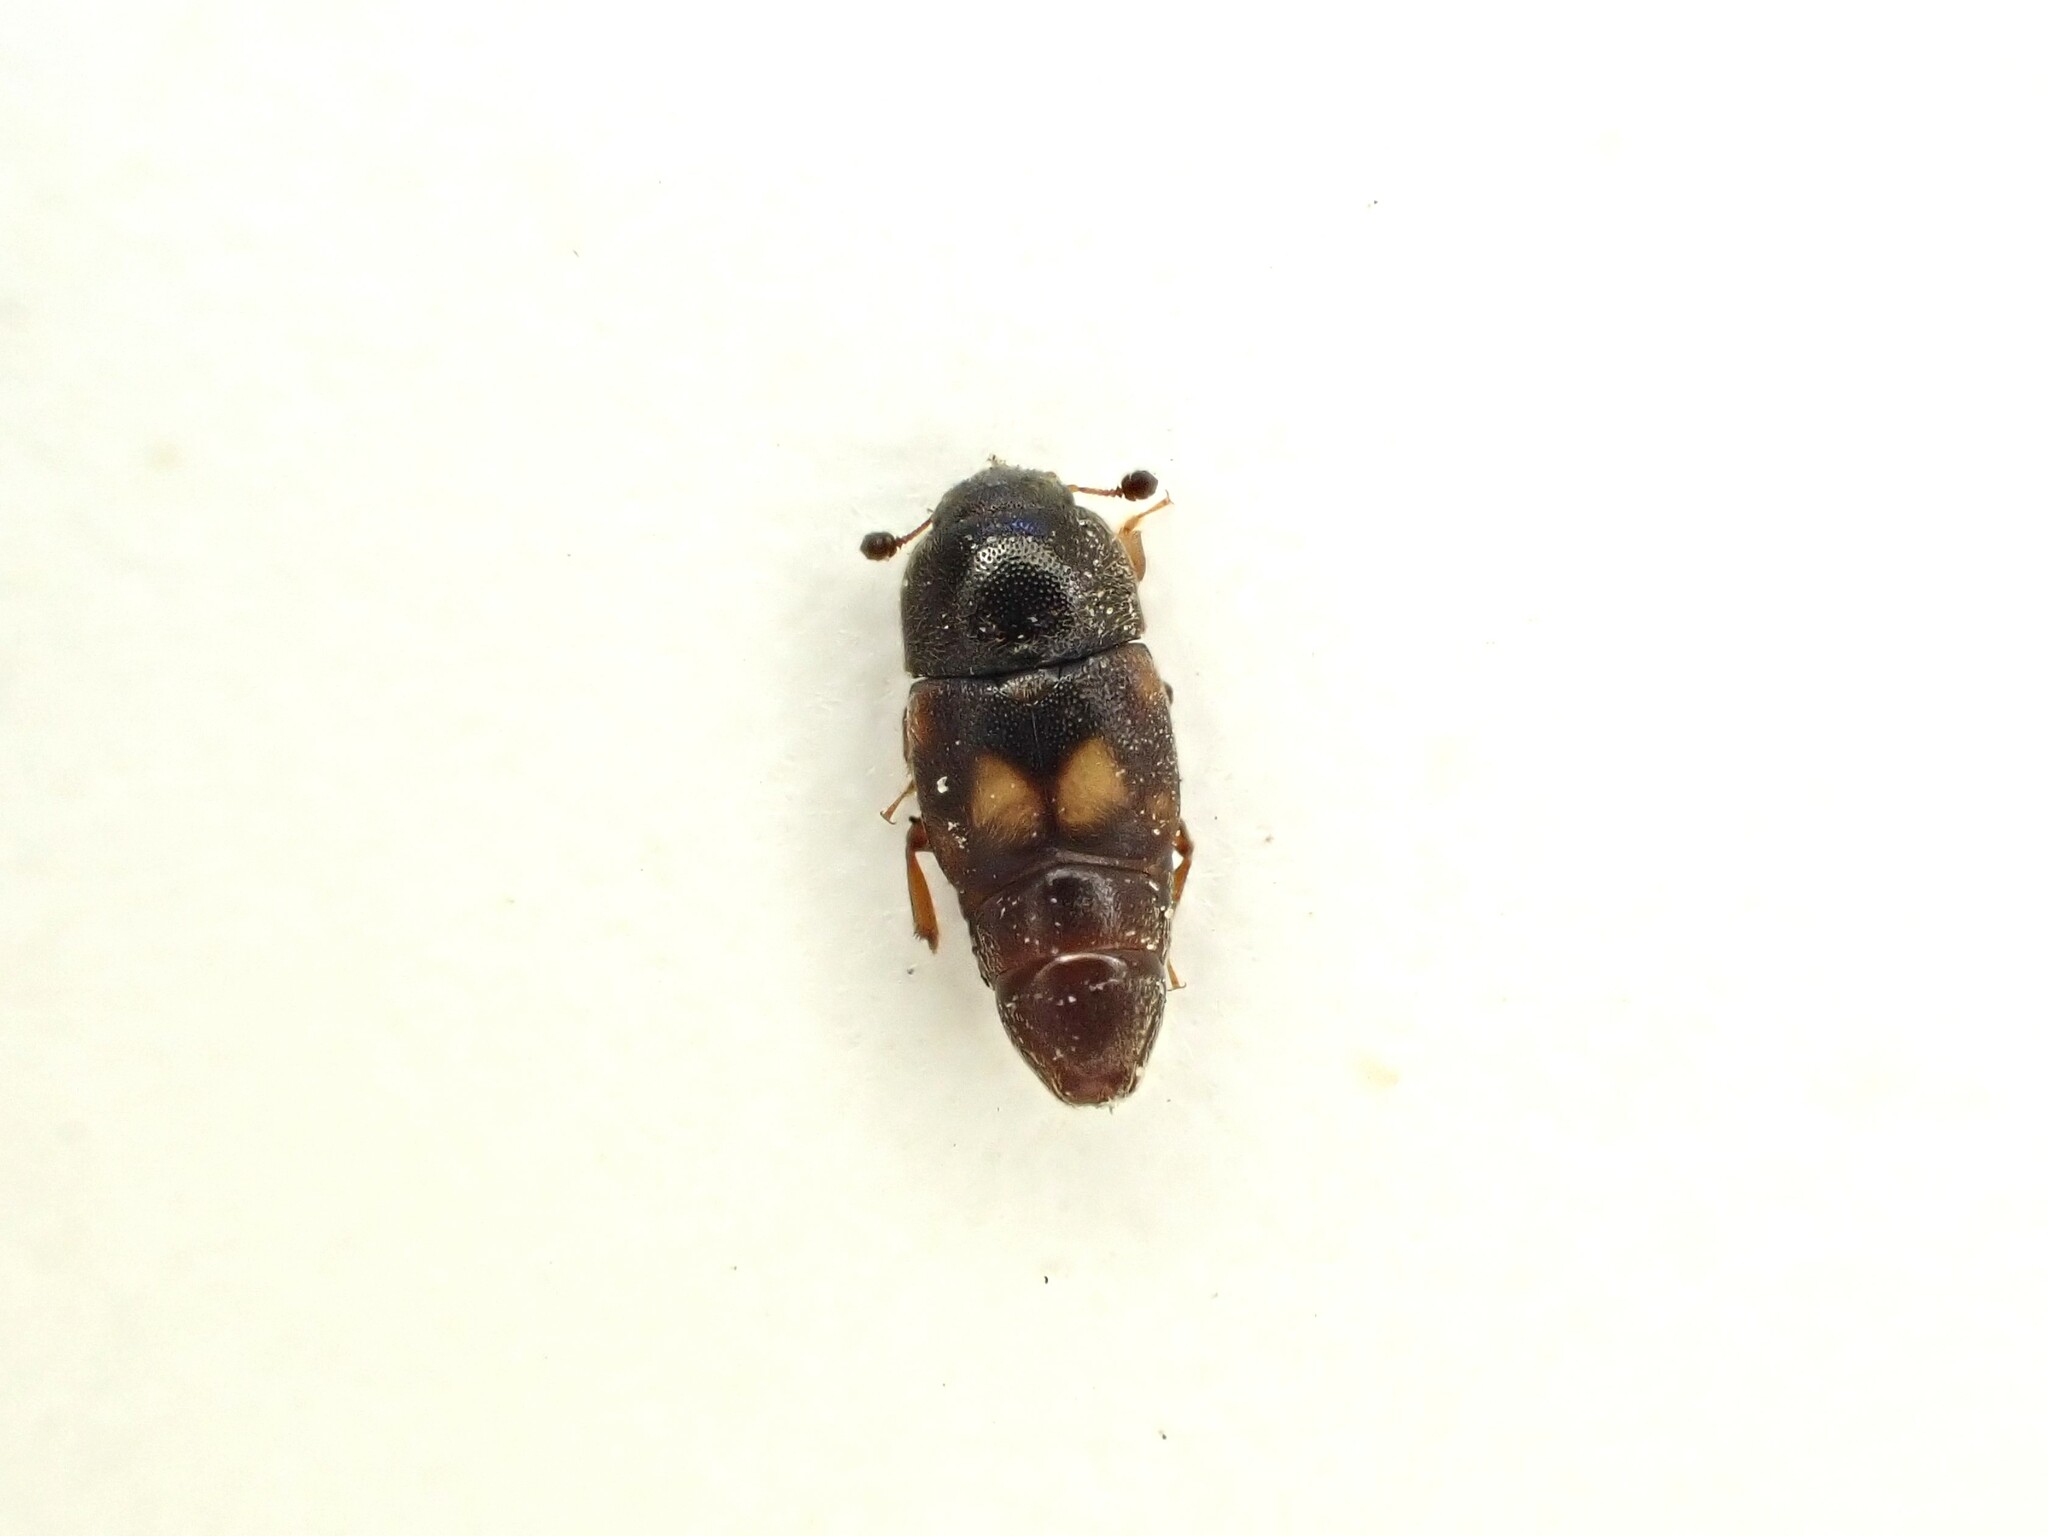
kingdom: Animalia
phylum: Arthropoda
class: Insecta
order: Coleoptera
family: Nitidulidae
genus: Carpophilus
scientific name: Carpophilus hemipterus
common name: Dried fruit beetle
